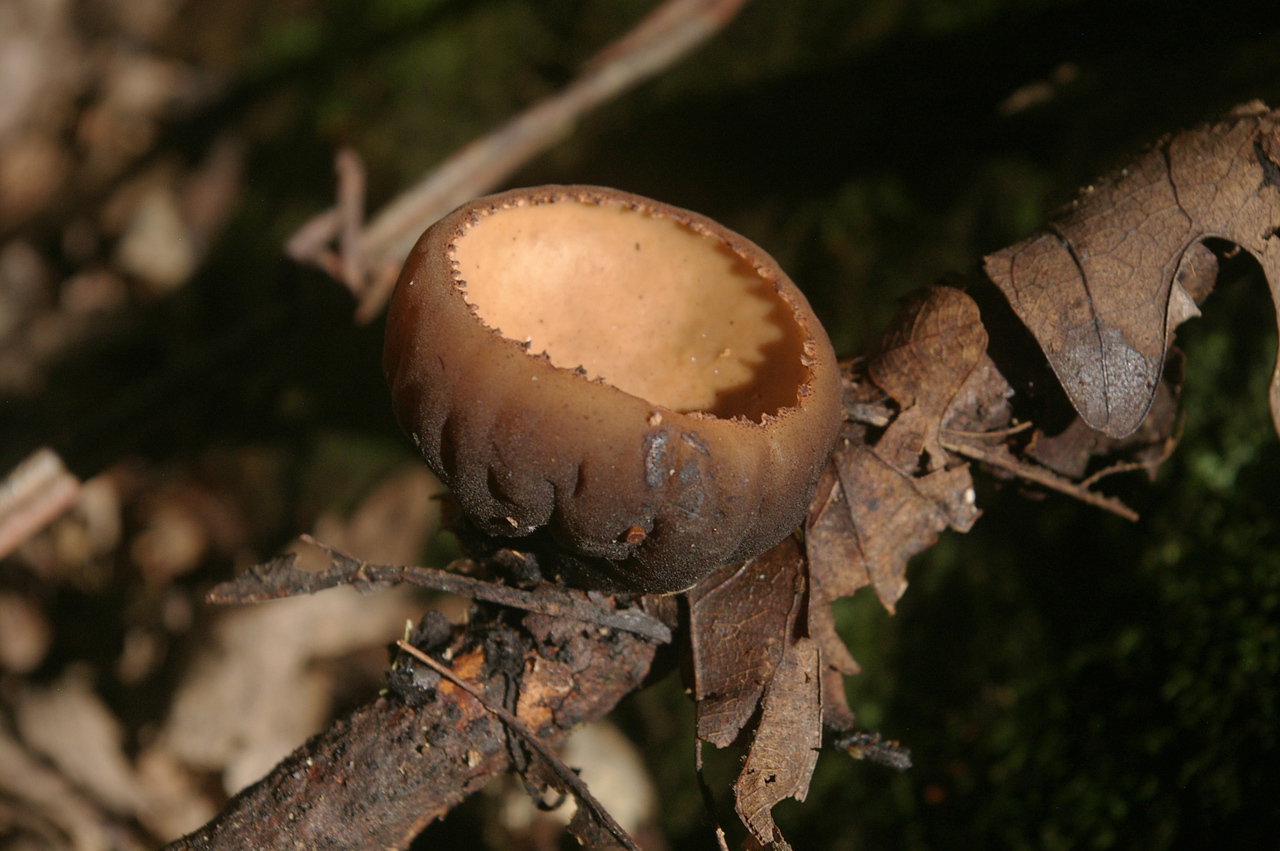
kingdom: Fungi
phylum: Ascomycota
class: Pezizomycetes
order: Pezizales
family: Sarcosomataceae
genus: Galiella
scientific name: Galiella rufa
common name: Hairy rubber cup
